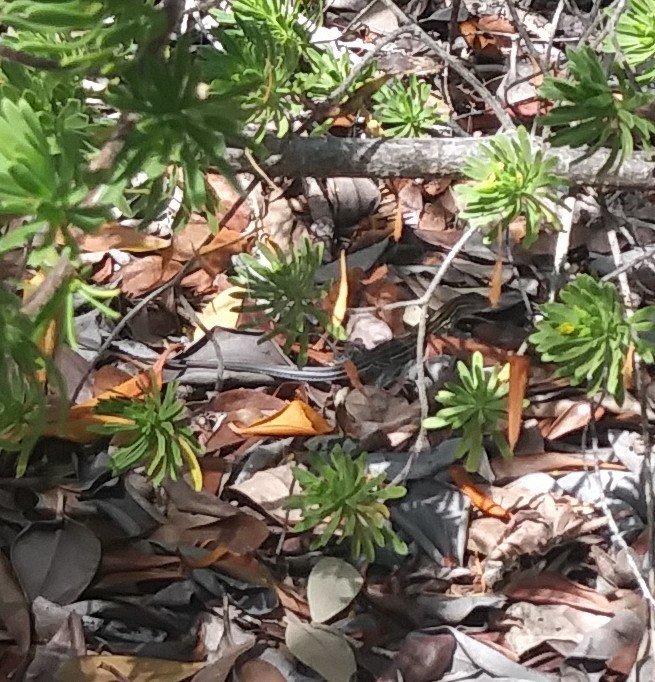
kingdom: Animalia
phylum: Chordata
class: Squamata
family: Teiidae
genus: Aspidoscelis
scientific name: Aspidoscelis sexlineatus
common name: Six-lined racerunner
